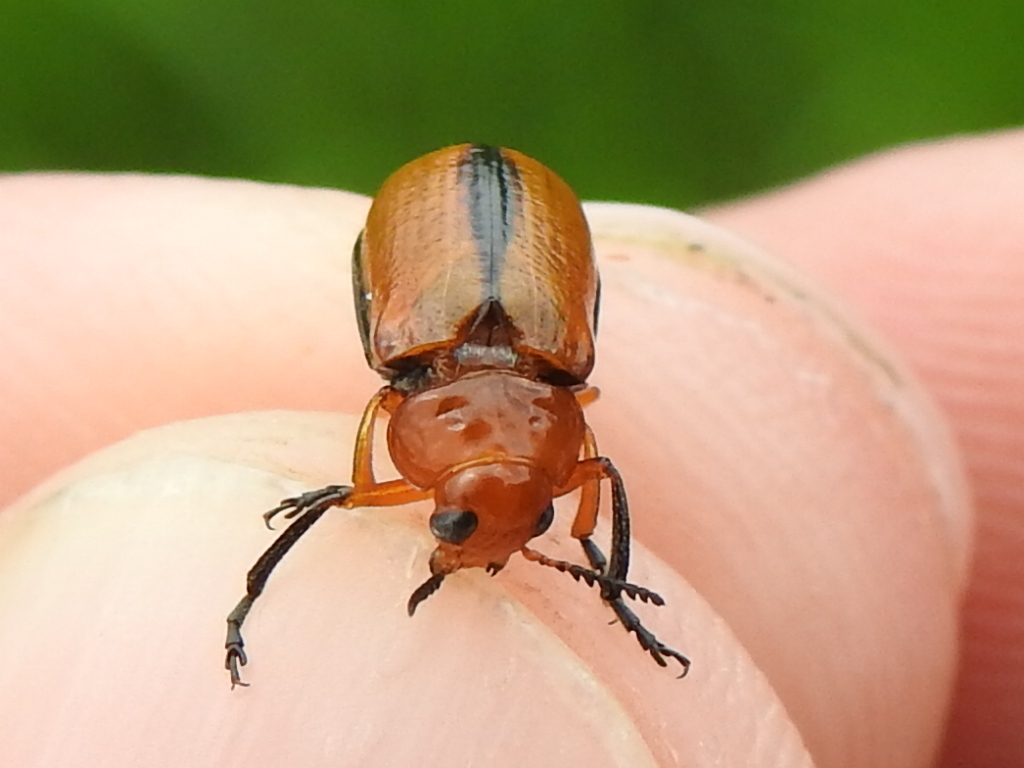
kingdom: Animalia
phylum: Arthropoda
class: Insecta
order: Coleoptera
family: Chrysomelidae
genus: Anomoea
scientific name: Anomoea laticlavia
